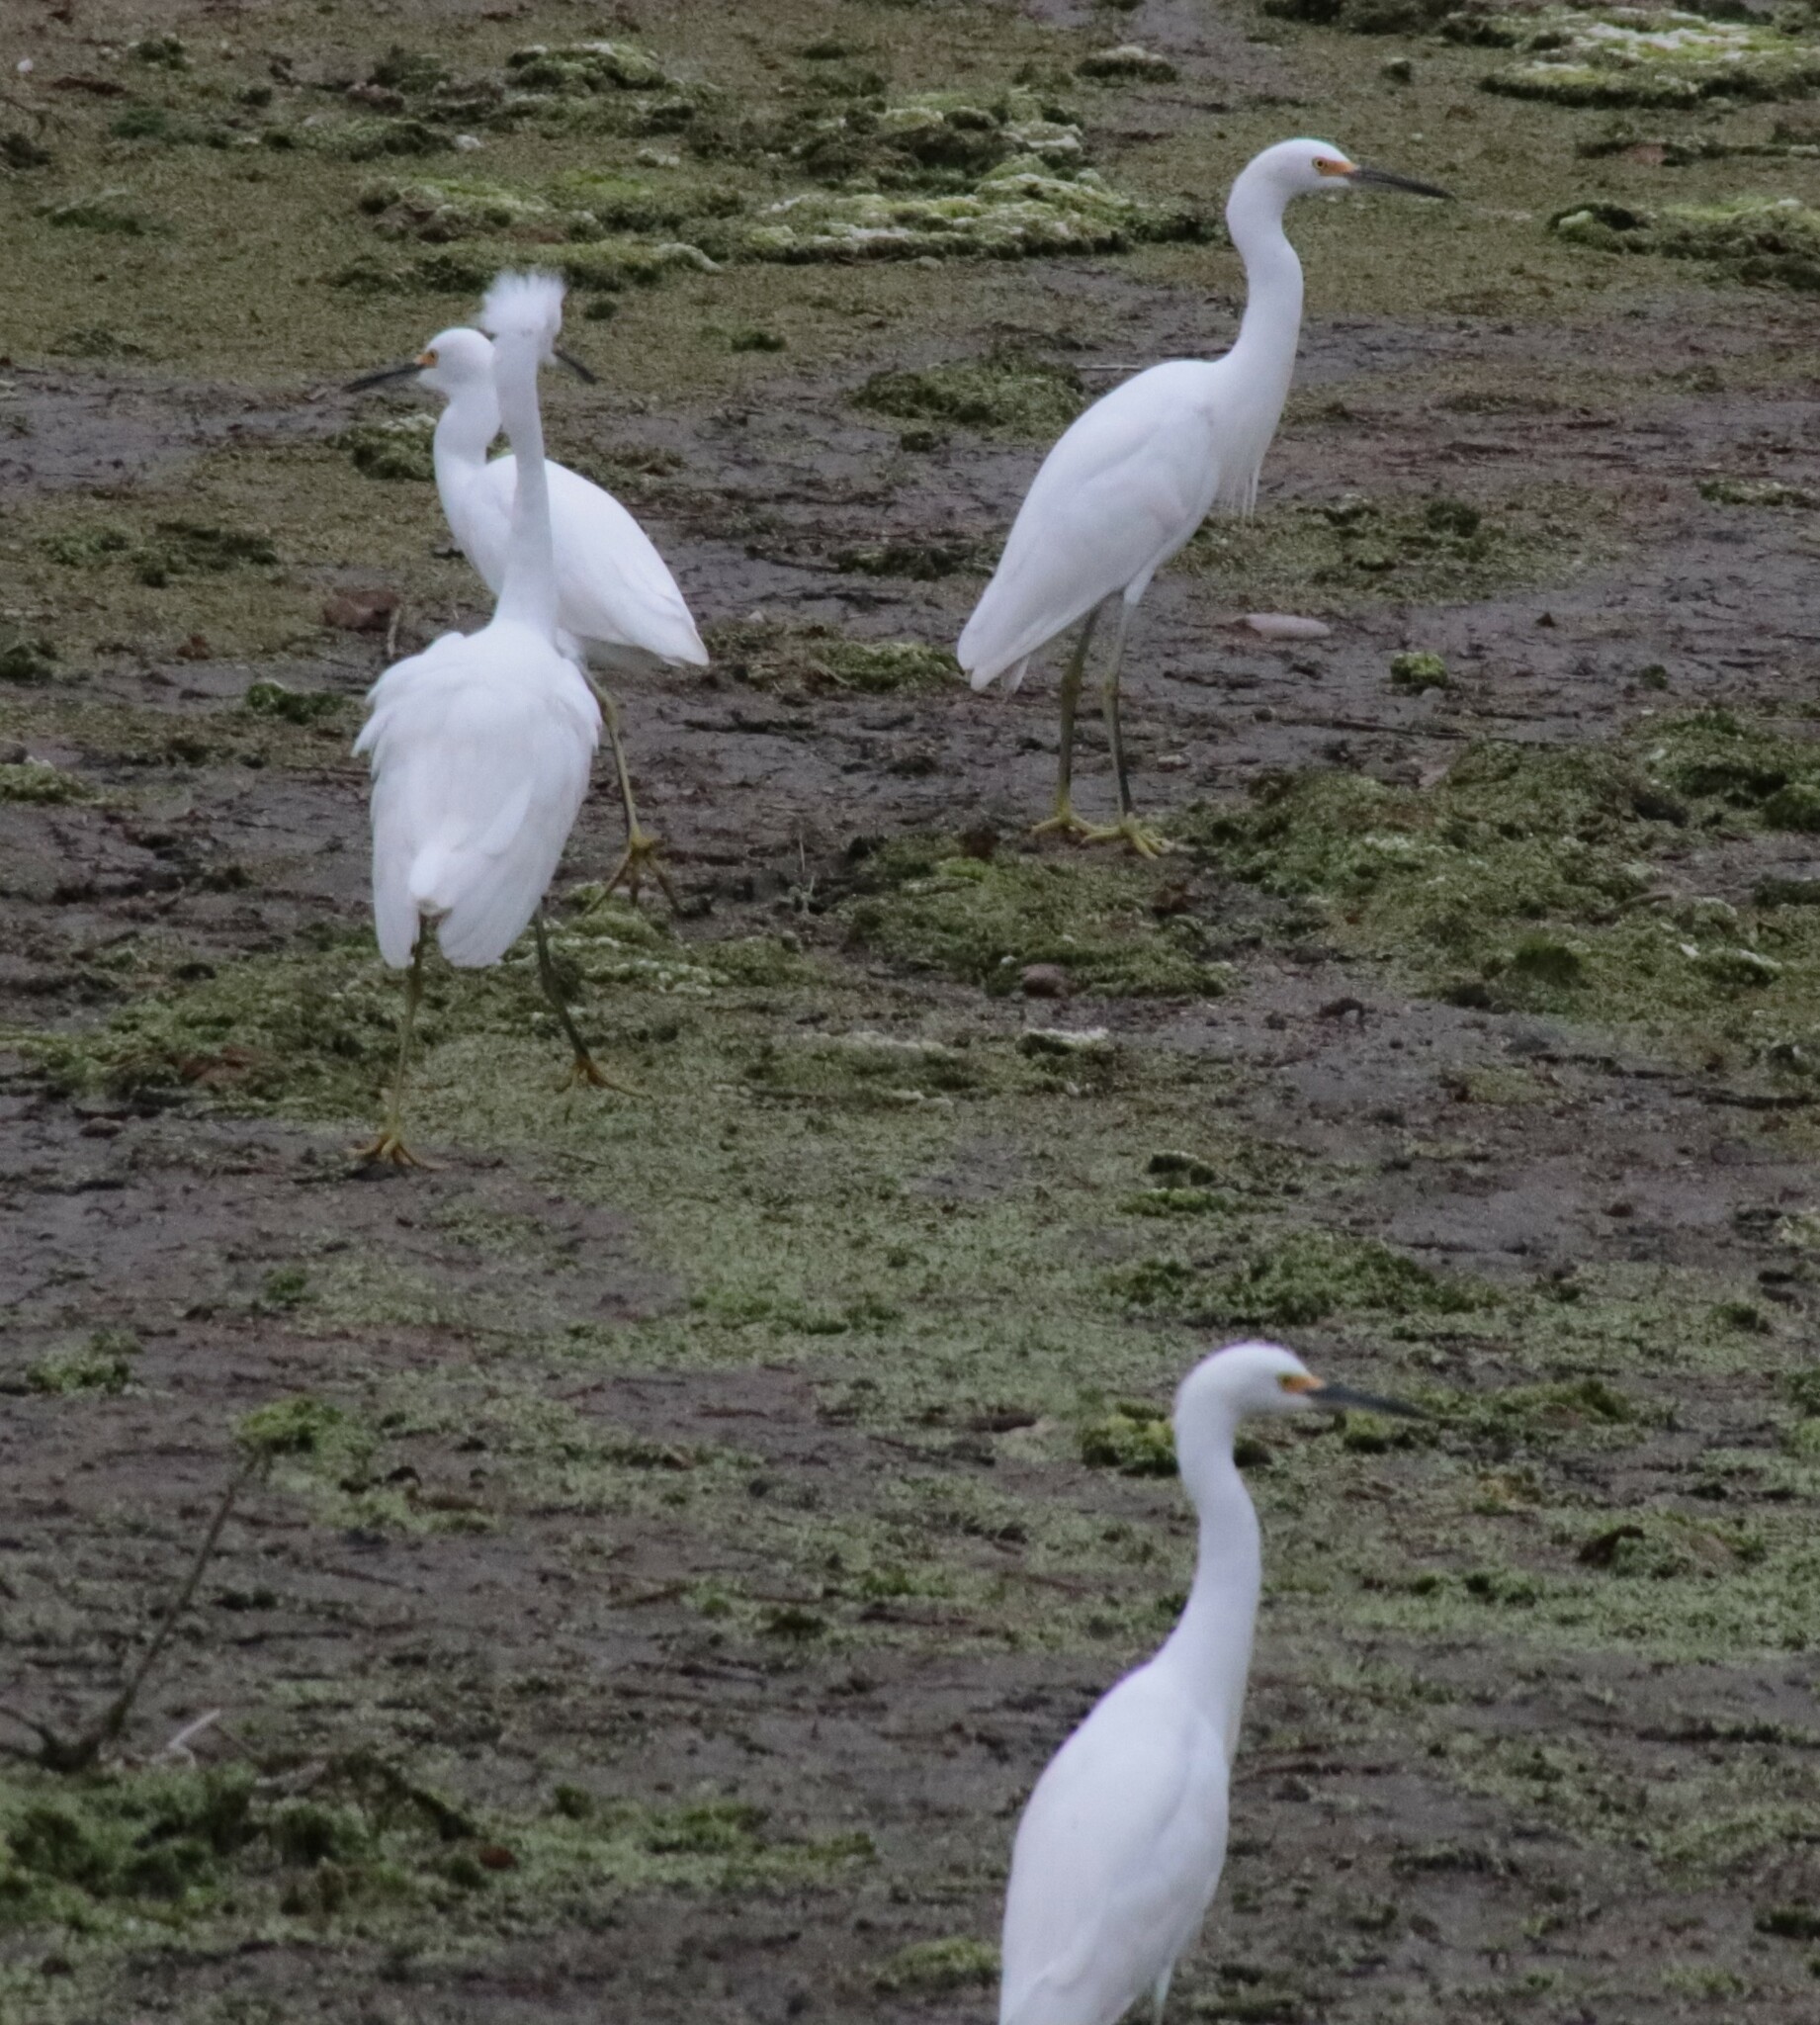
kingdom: Animalia
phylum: Chordata
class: Aves
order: Pelecaniformes
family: Ardeidae
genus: Egretta
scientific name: Egretta thula
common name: Snowy egret
